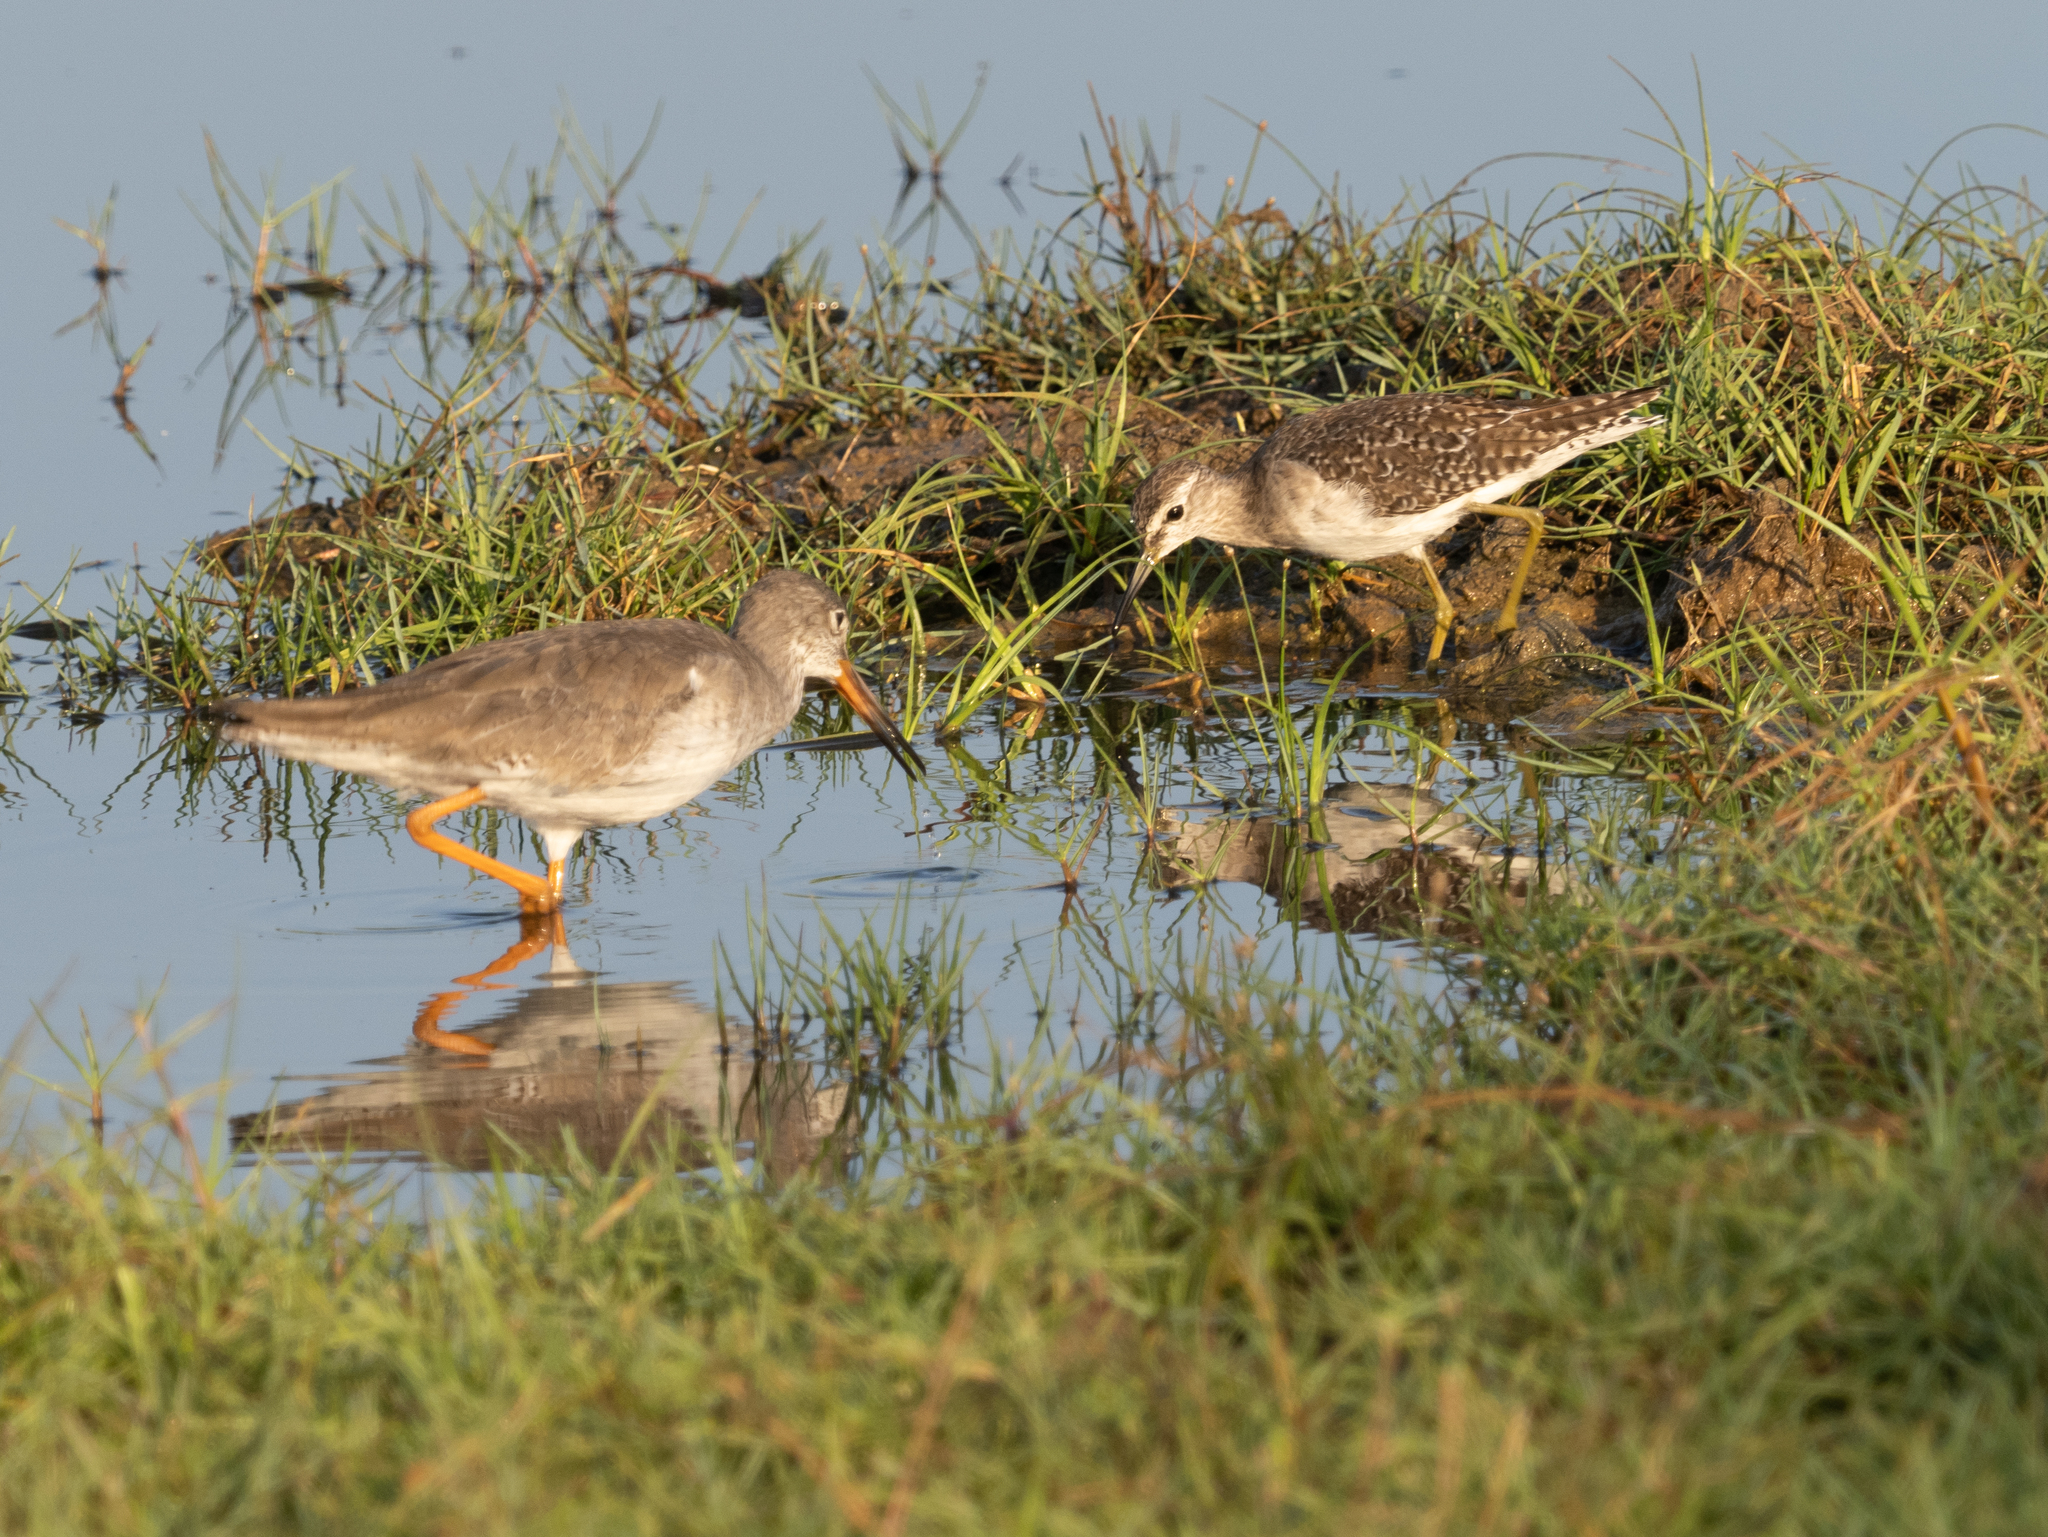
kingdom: Animalia
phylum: Chordata
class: Aves
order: Charadriiformes
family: Scolopacidae
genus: Tringa
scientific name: Tringa totanus
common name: Common redshank
